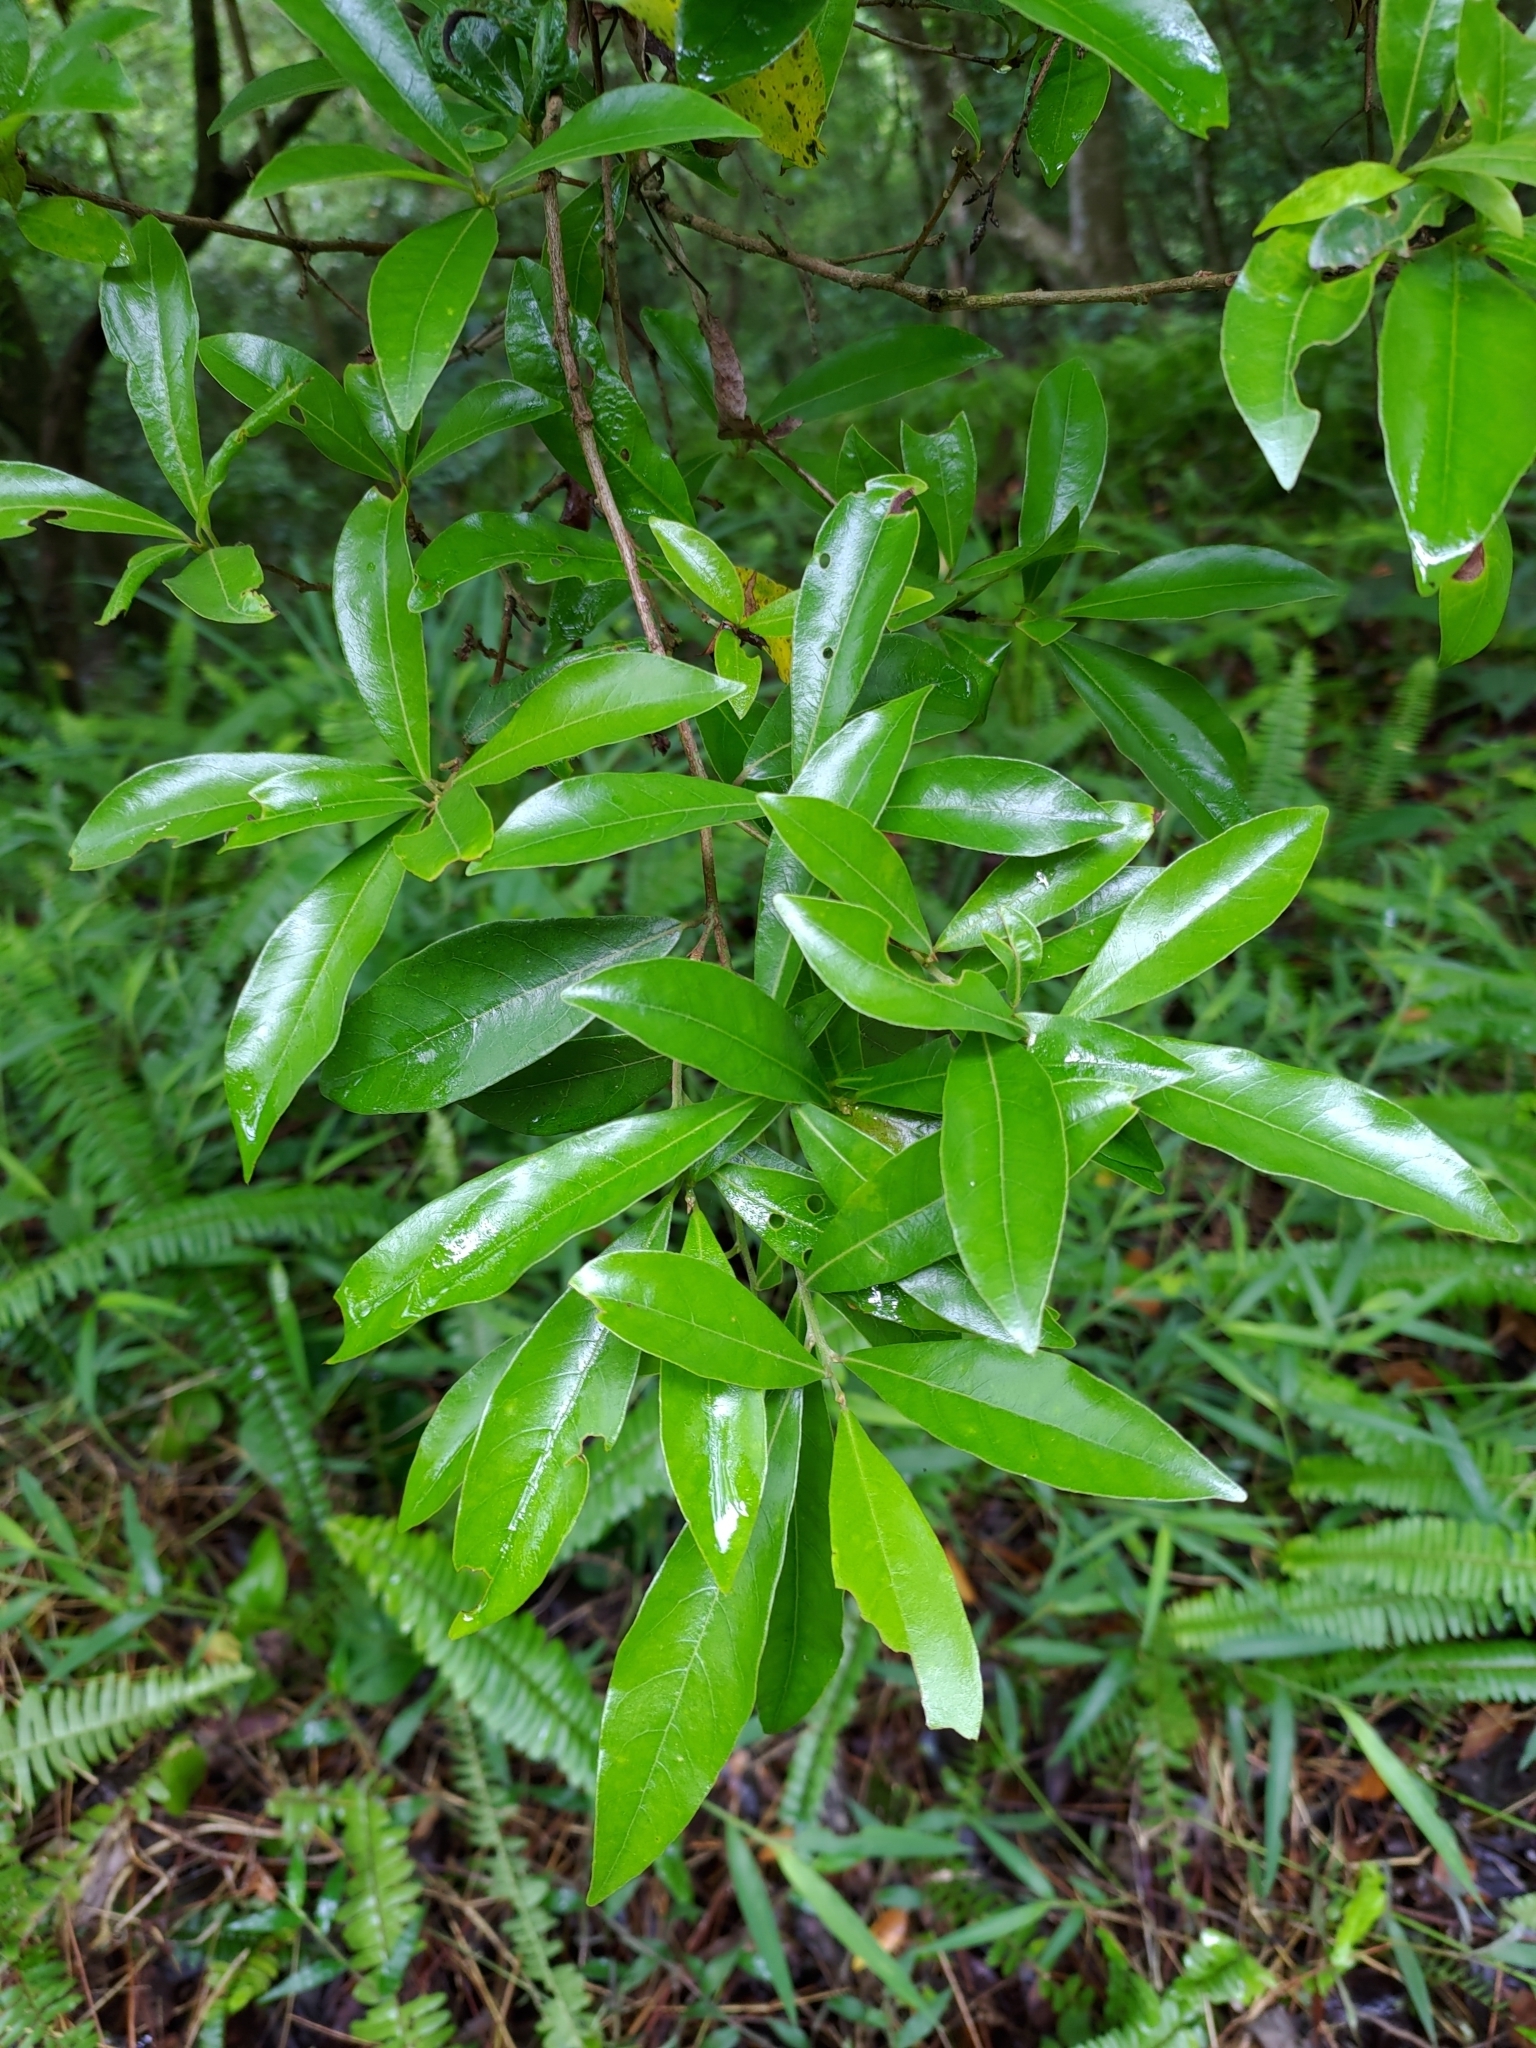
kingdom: Plantae
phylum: Tracheophyta
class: Magnoliopsida
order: Laurales
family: Lauraceae
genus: Litsea
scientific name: Litsea hypophaea
